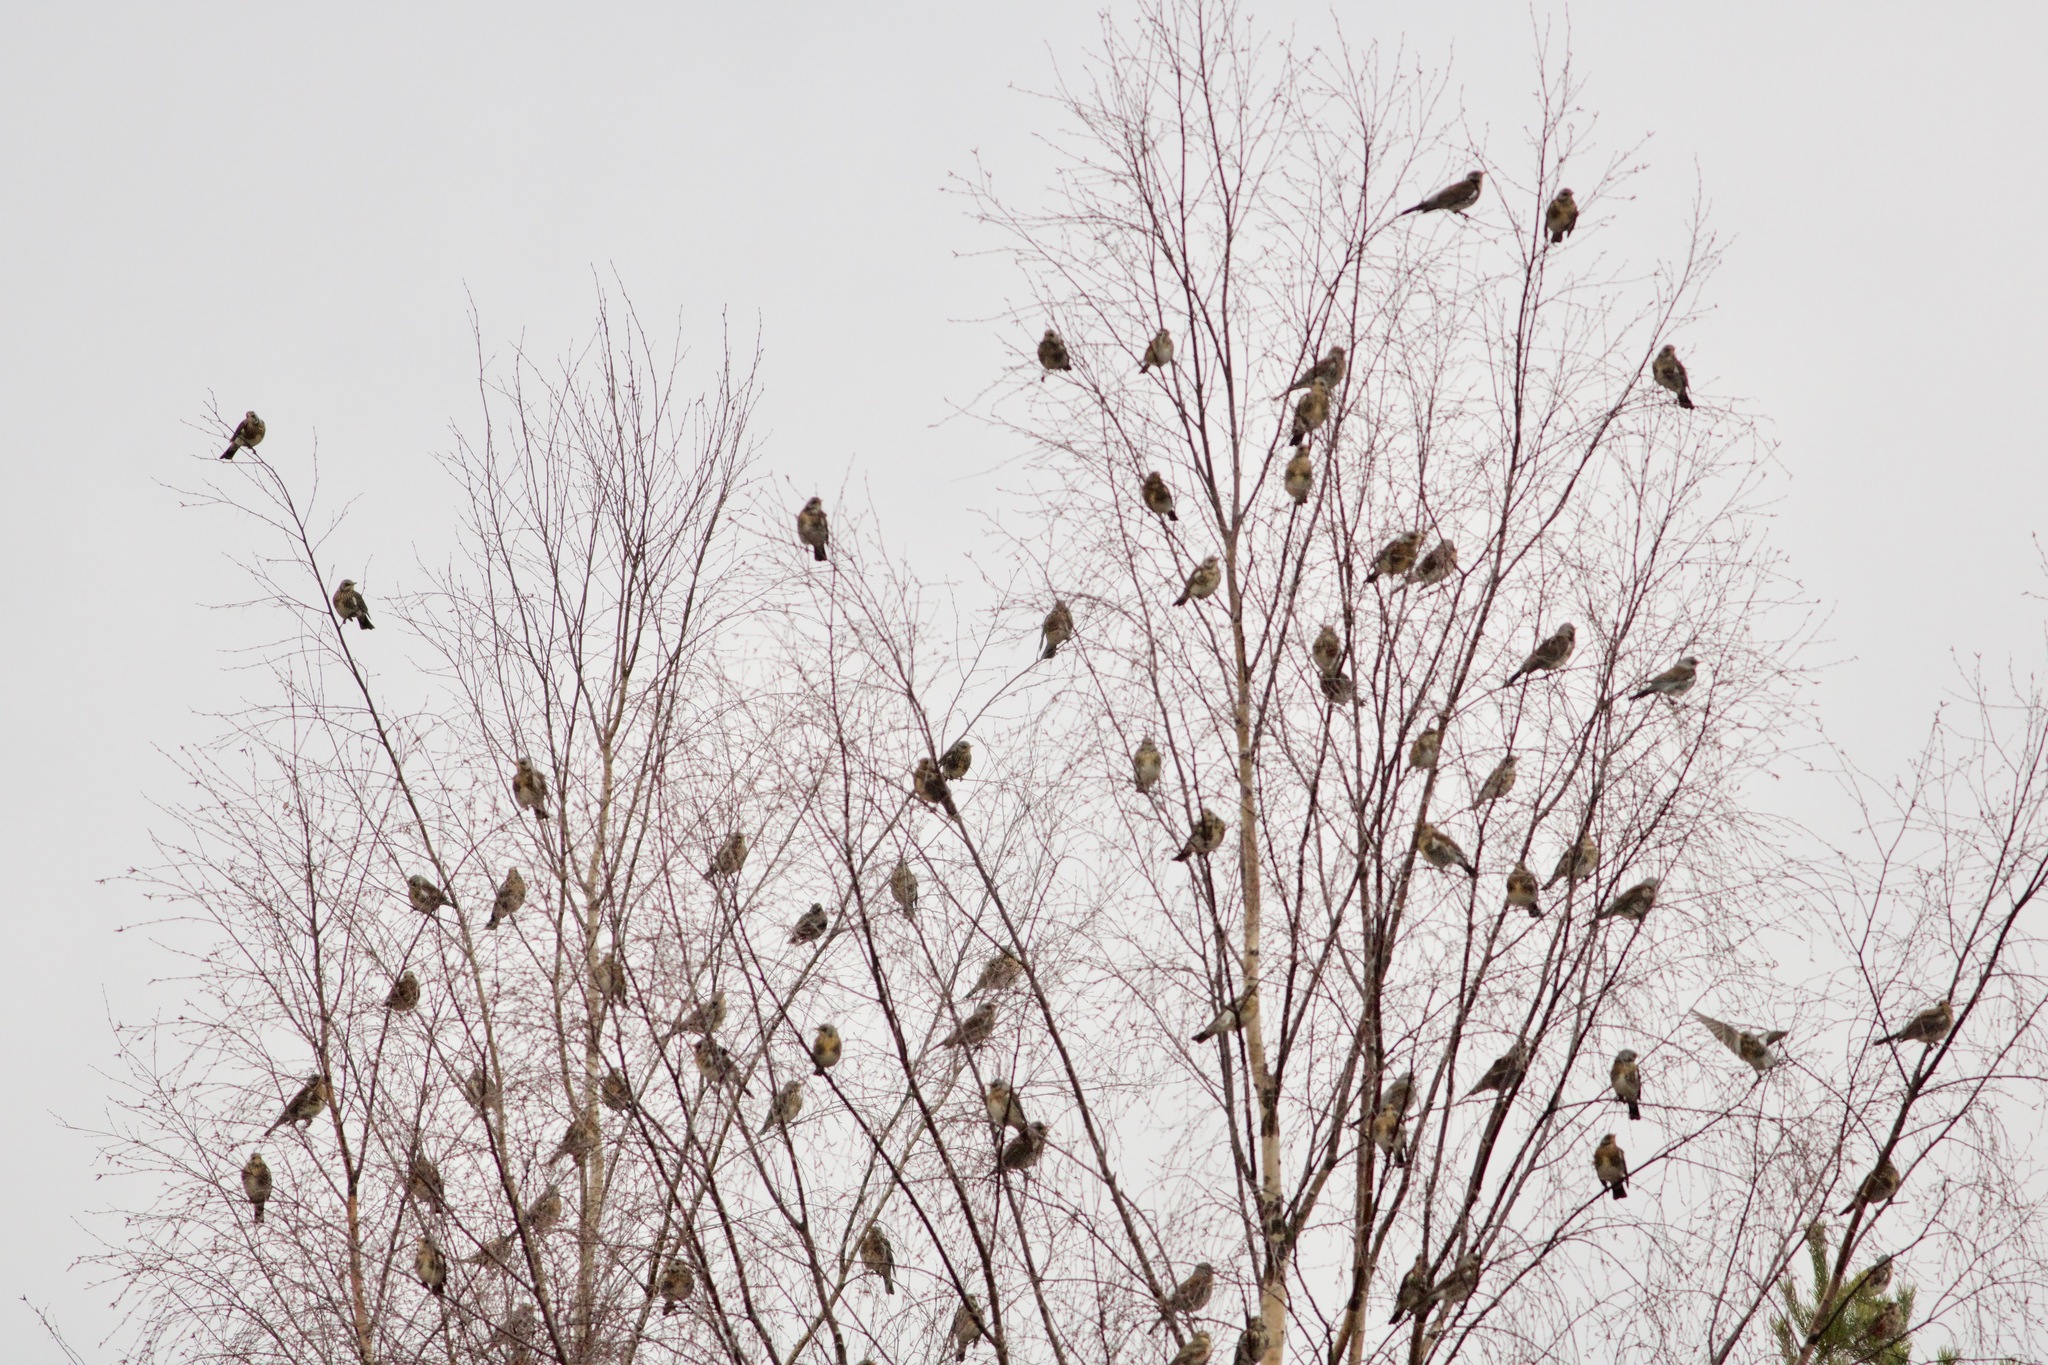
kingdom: Animalia
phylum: Chordata
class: Aves
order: Passeriformes
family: Turdidae
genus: Turdus
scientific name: Turdus pilaris
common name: Fieldfare
